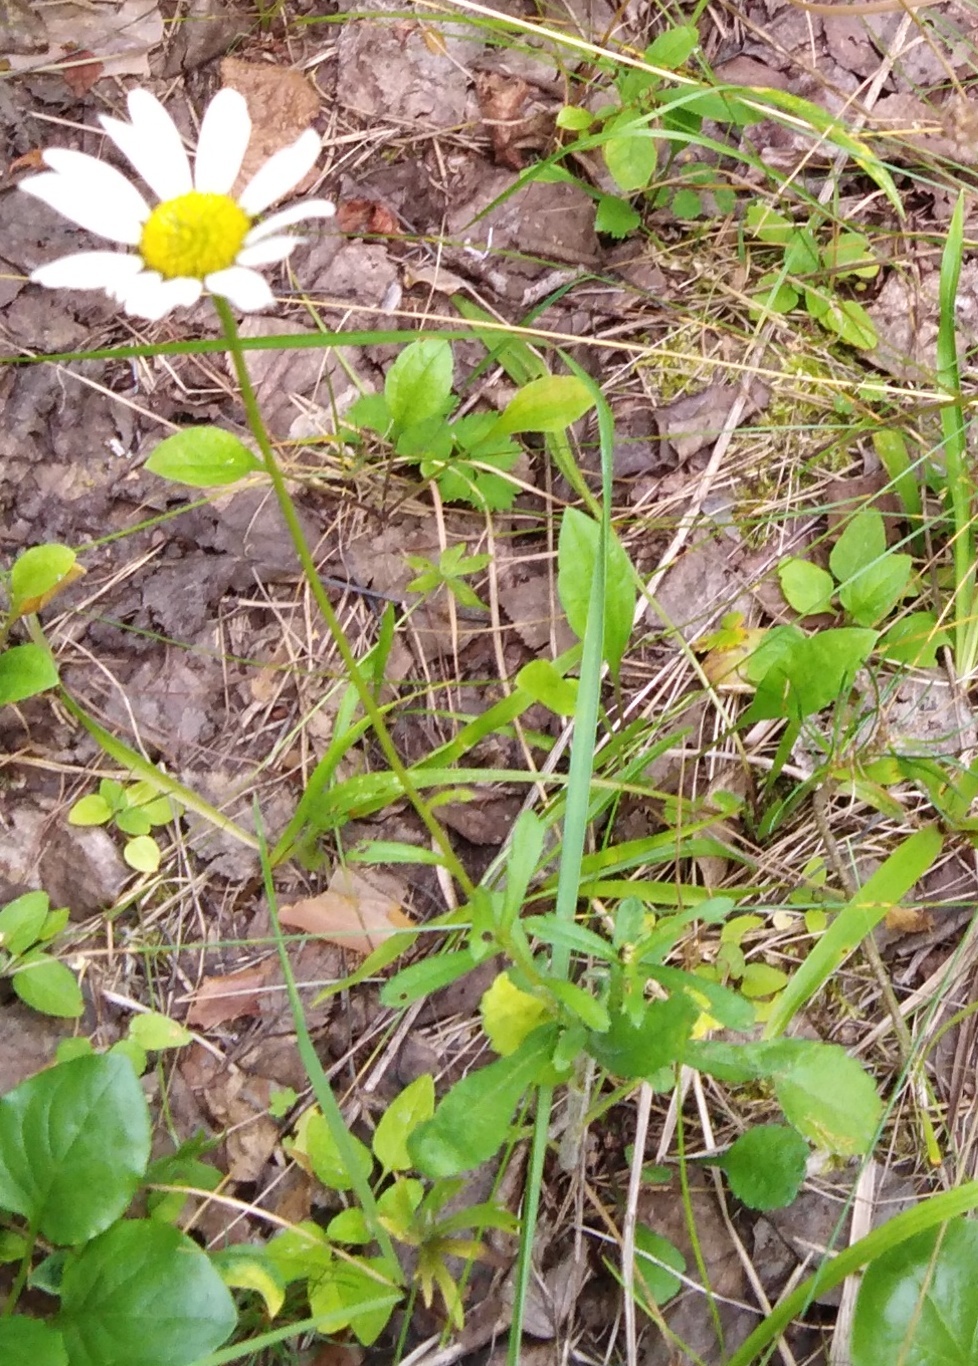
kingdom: Plantae
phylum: Tracheophyta
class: Magnoliopsida
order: Asterales
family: Asteraceae
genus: Leucanthemum
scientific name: Leucanthemum vulgare
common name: Oxeye daisy
